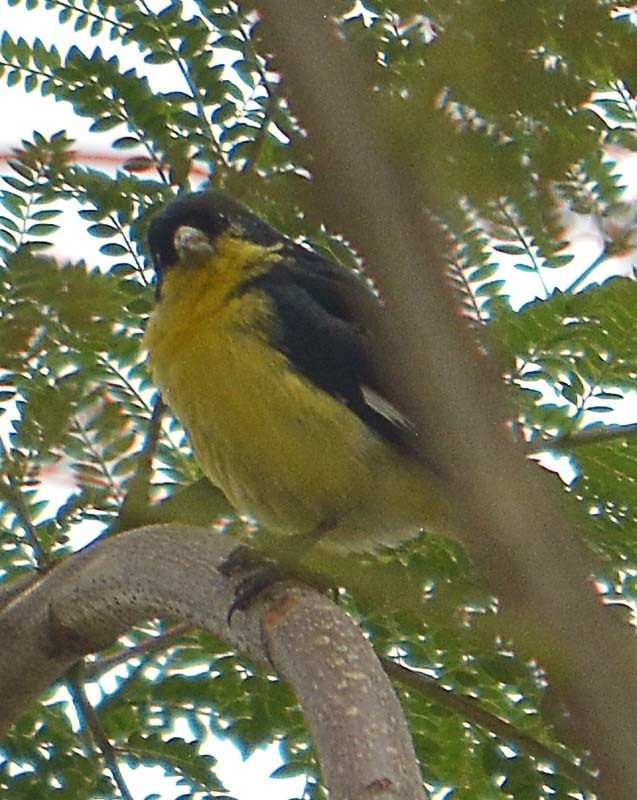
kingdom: Animalia
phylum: Chordata
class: Aves
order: Passeriformes
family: Fringillidae
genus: Spinus
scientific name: Spinus psaltria
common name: Lesser goldfinch
